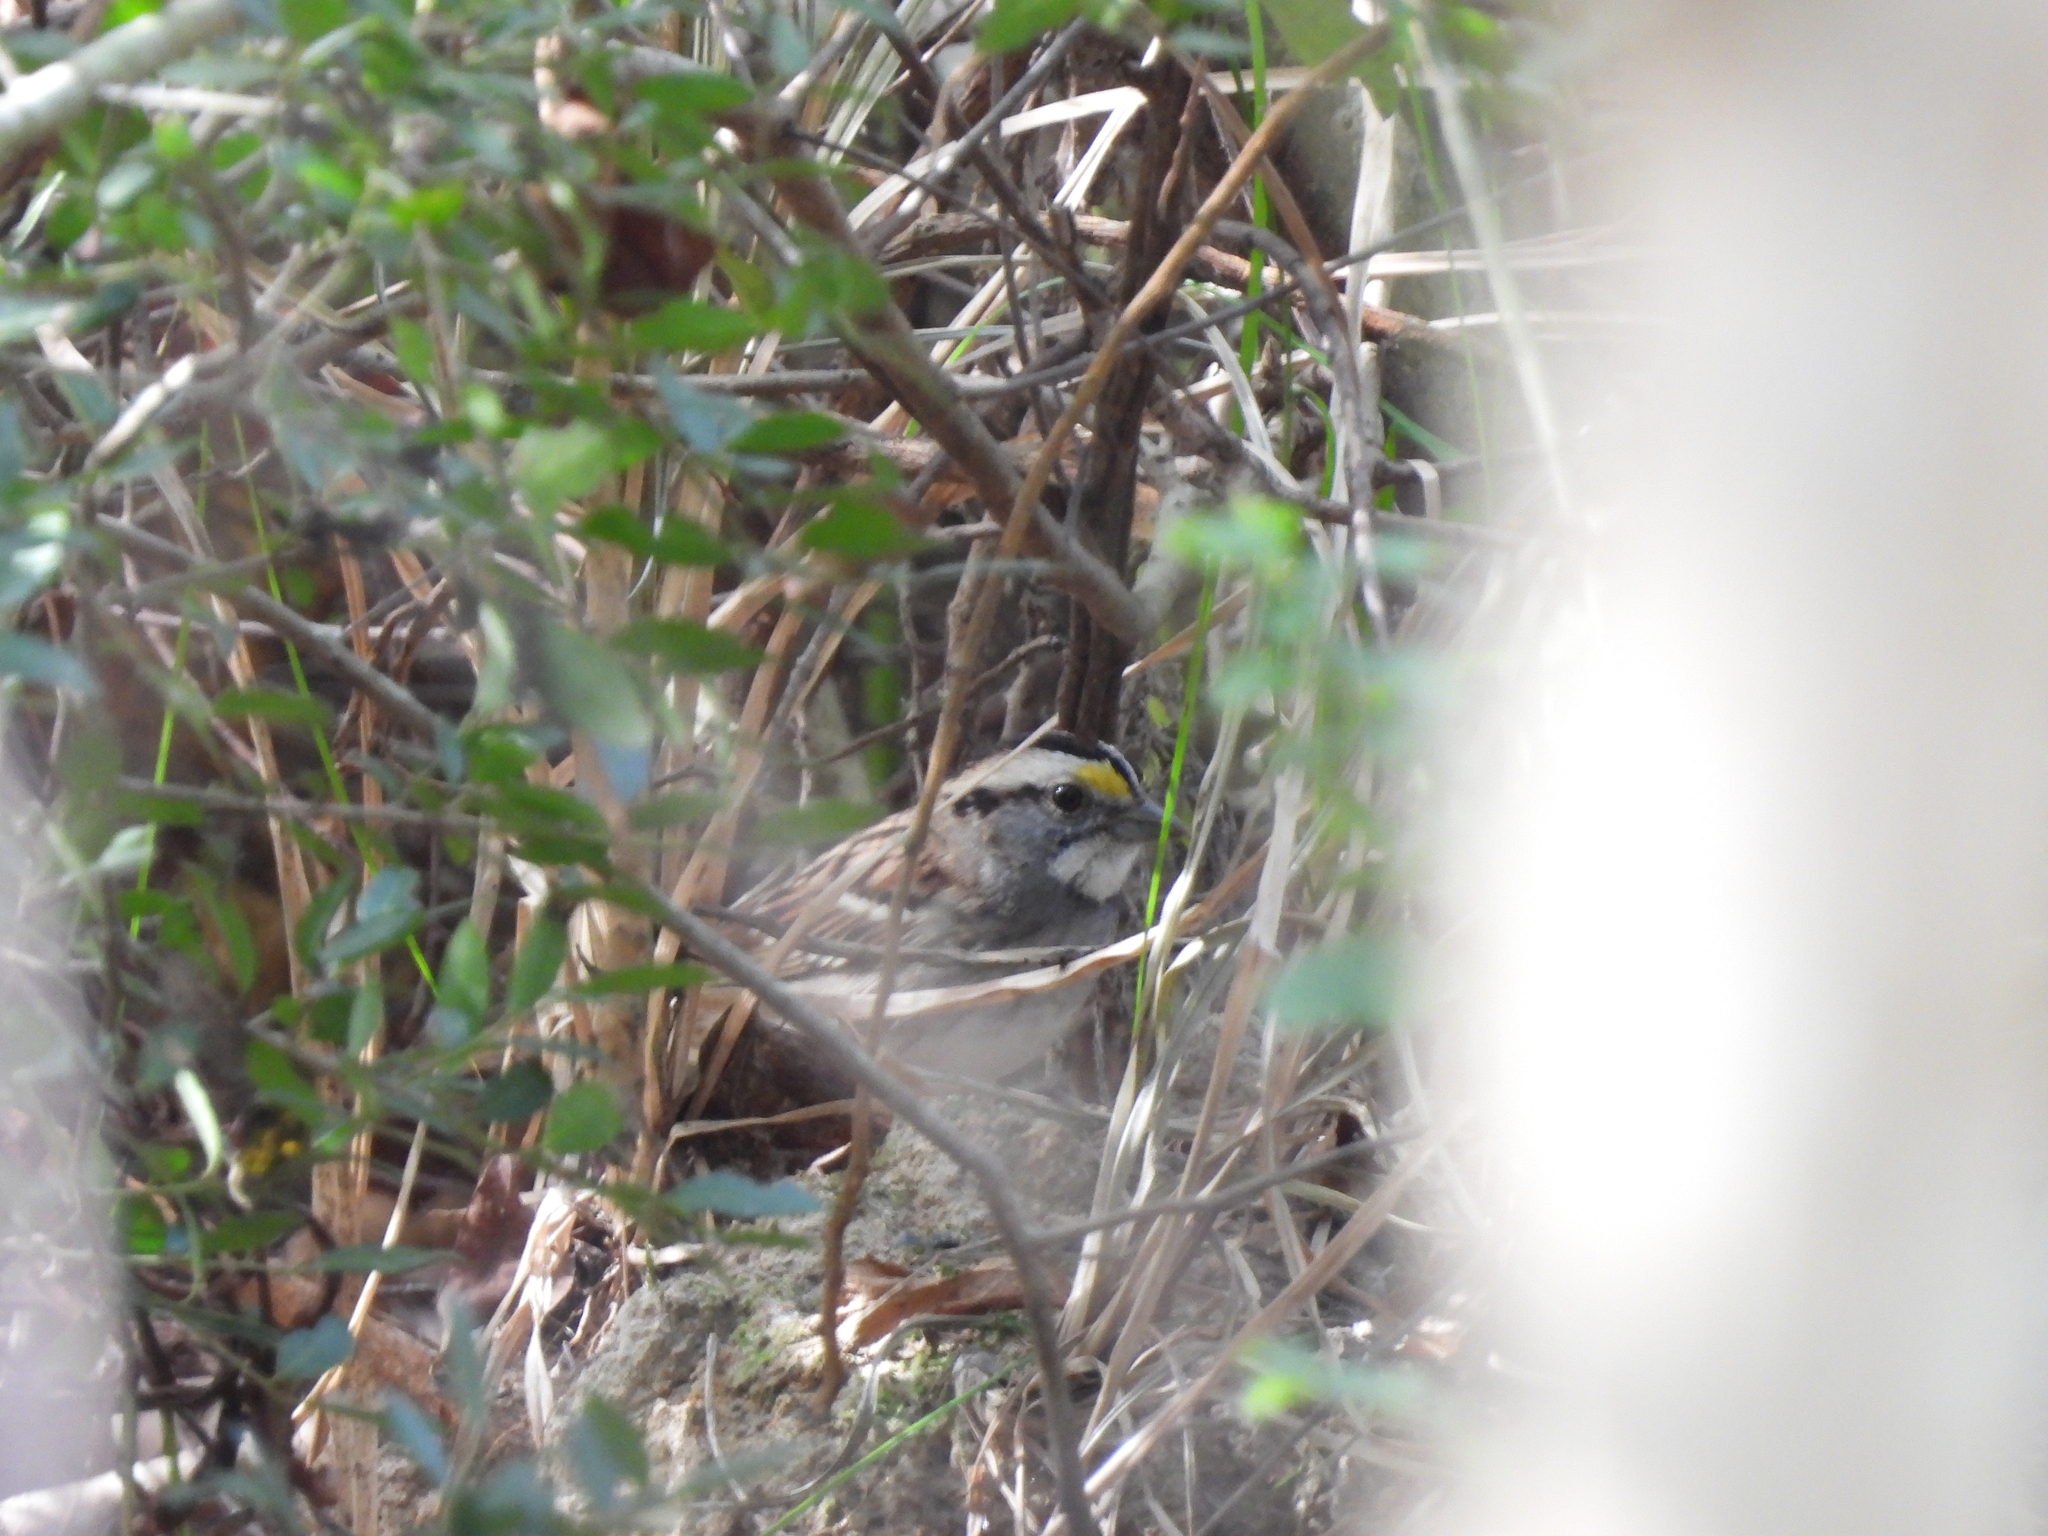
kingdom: Animalia
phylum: Chordata
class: Aves
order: Passeriformes
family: Passerellidae
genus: Zonotrichia
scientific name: Zonotrichia albicollis
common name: White-throated sparrow
